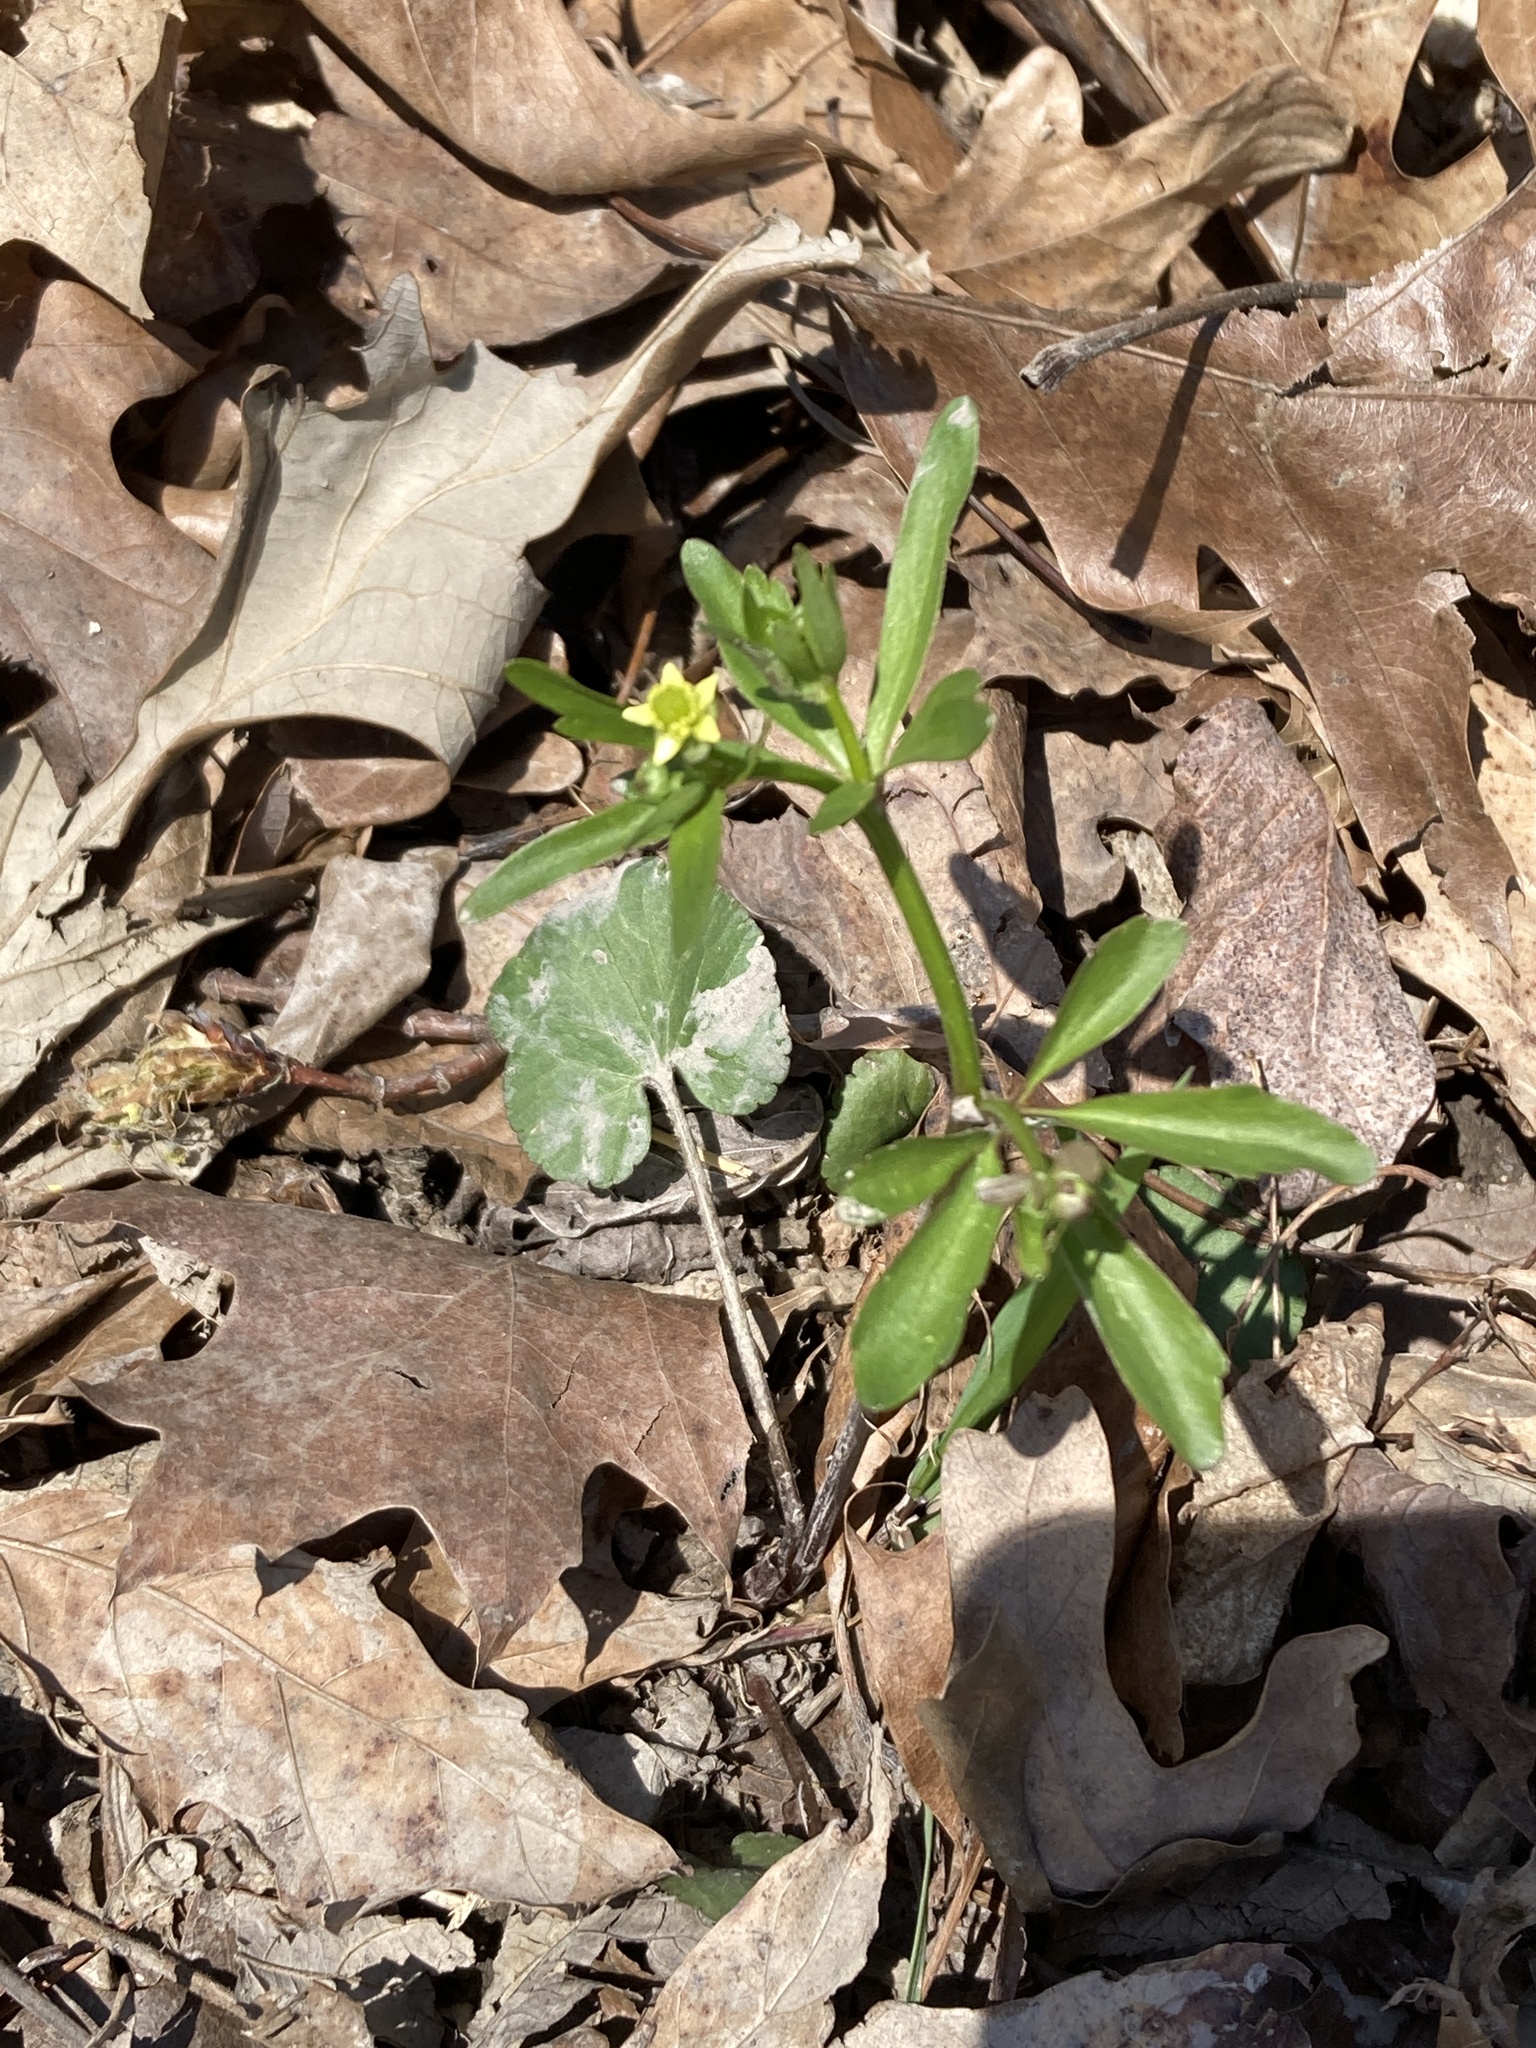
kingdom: Plantae
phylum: Tracheophyta
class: Magnoliopsida
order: Ranunculales
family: Ranunculaceae
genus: Ranunculus
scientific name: Ranunculus abortivus
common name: Early wood buttercup
